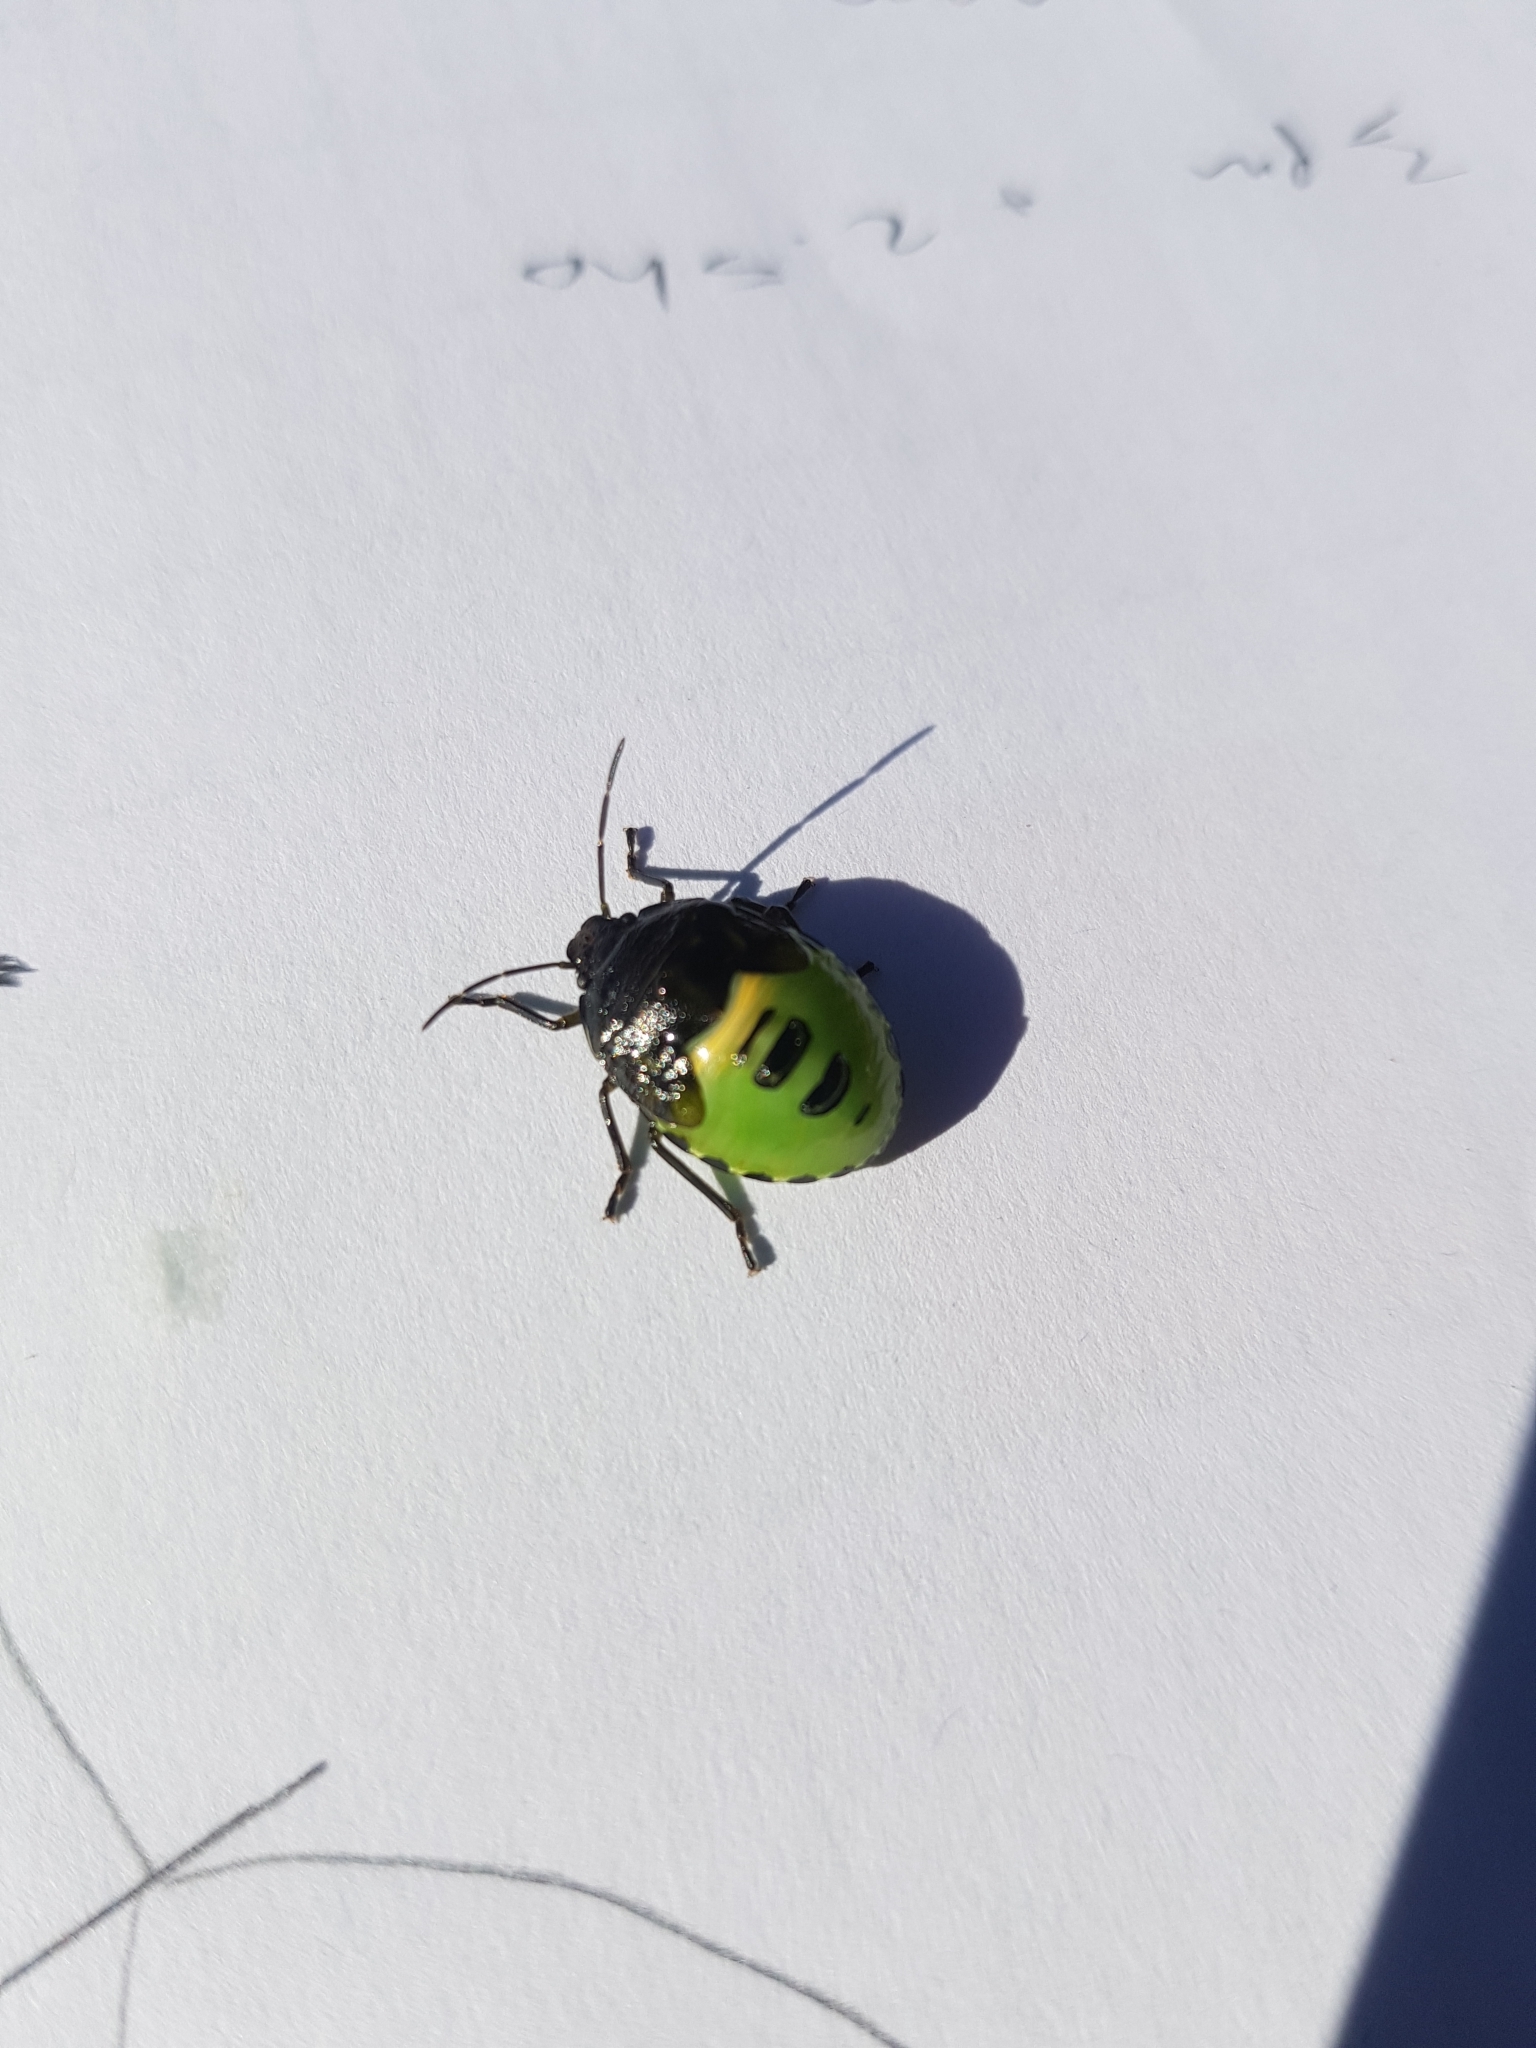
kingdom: Animalia
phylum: Arthropoda
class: Insecta
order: Hemiptera
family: Pentatomidae
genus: Glaucias
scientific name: Glaucias amyota
